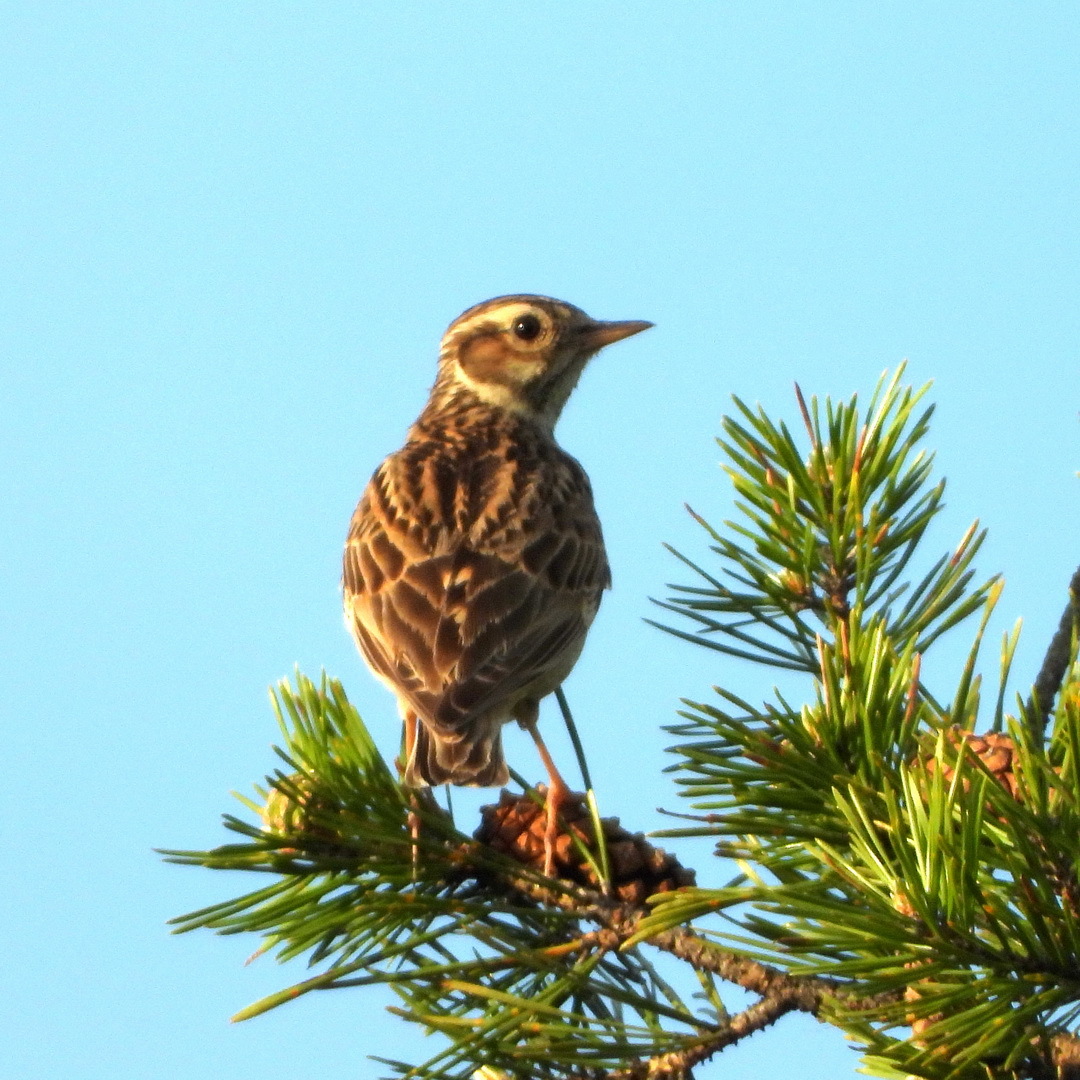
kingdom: Animalia
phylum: Chordata
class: Aves
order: Passeriformes
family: Alaudidae
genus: Lullula
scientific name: Lullula arborea
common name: Woodlark
